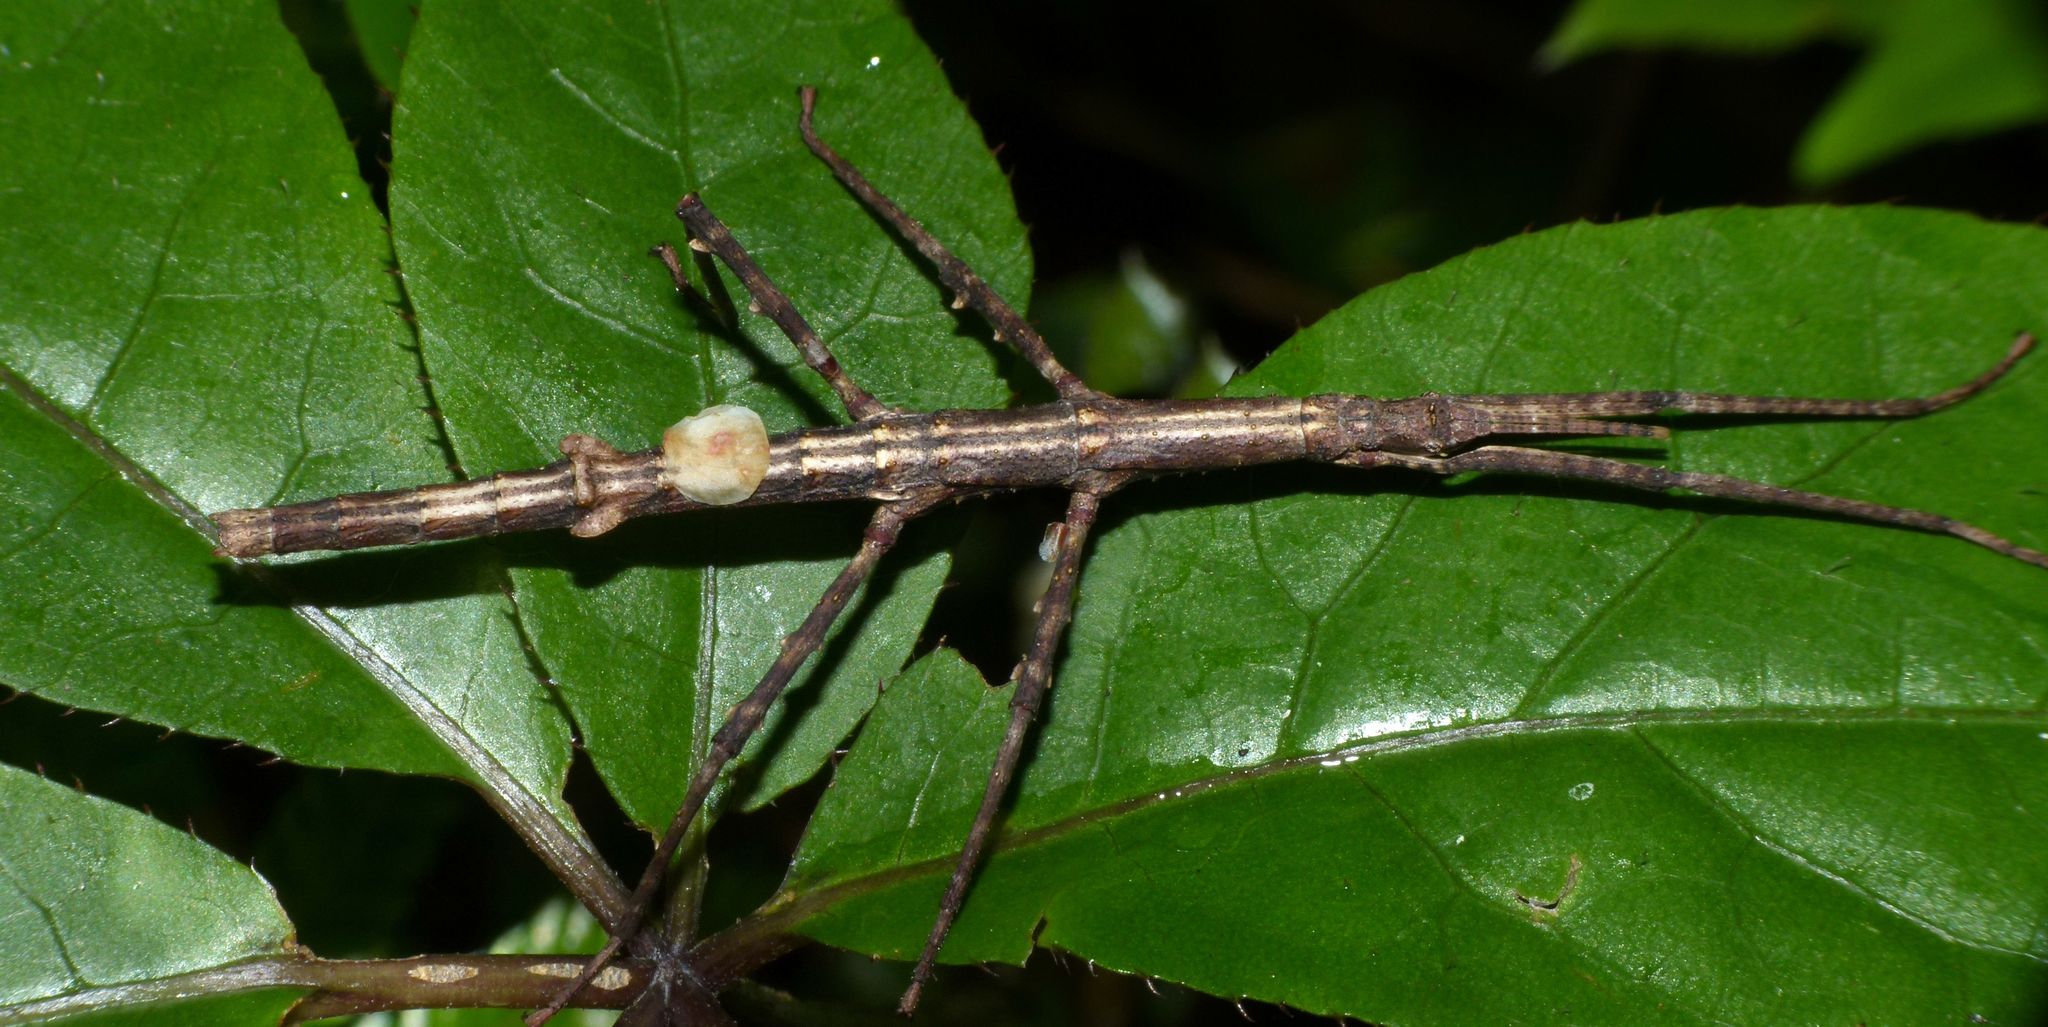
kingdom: Animalia
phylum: Arthropoda
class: Insecta
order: Phasmida
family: Phasmatidae
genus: Niveaphasma
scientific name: Niveaphasma annulatum
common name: Hutton's stick insect
